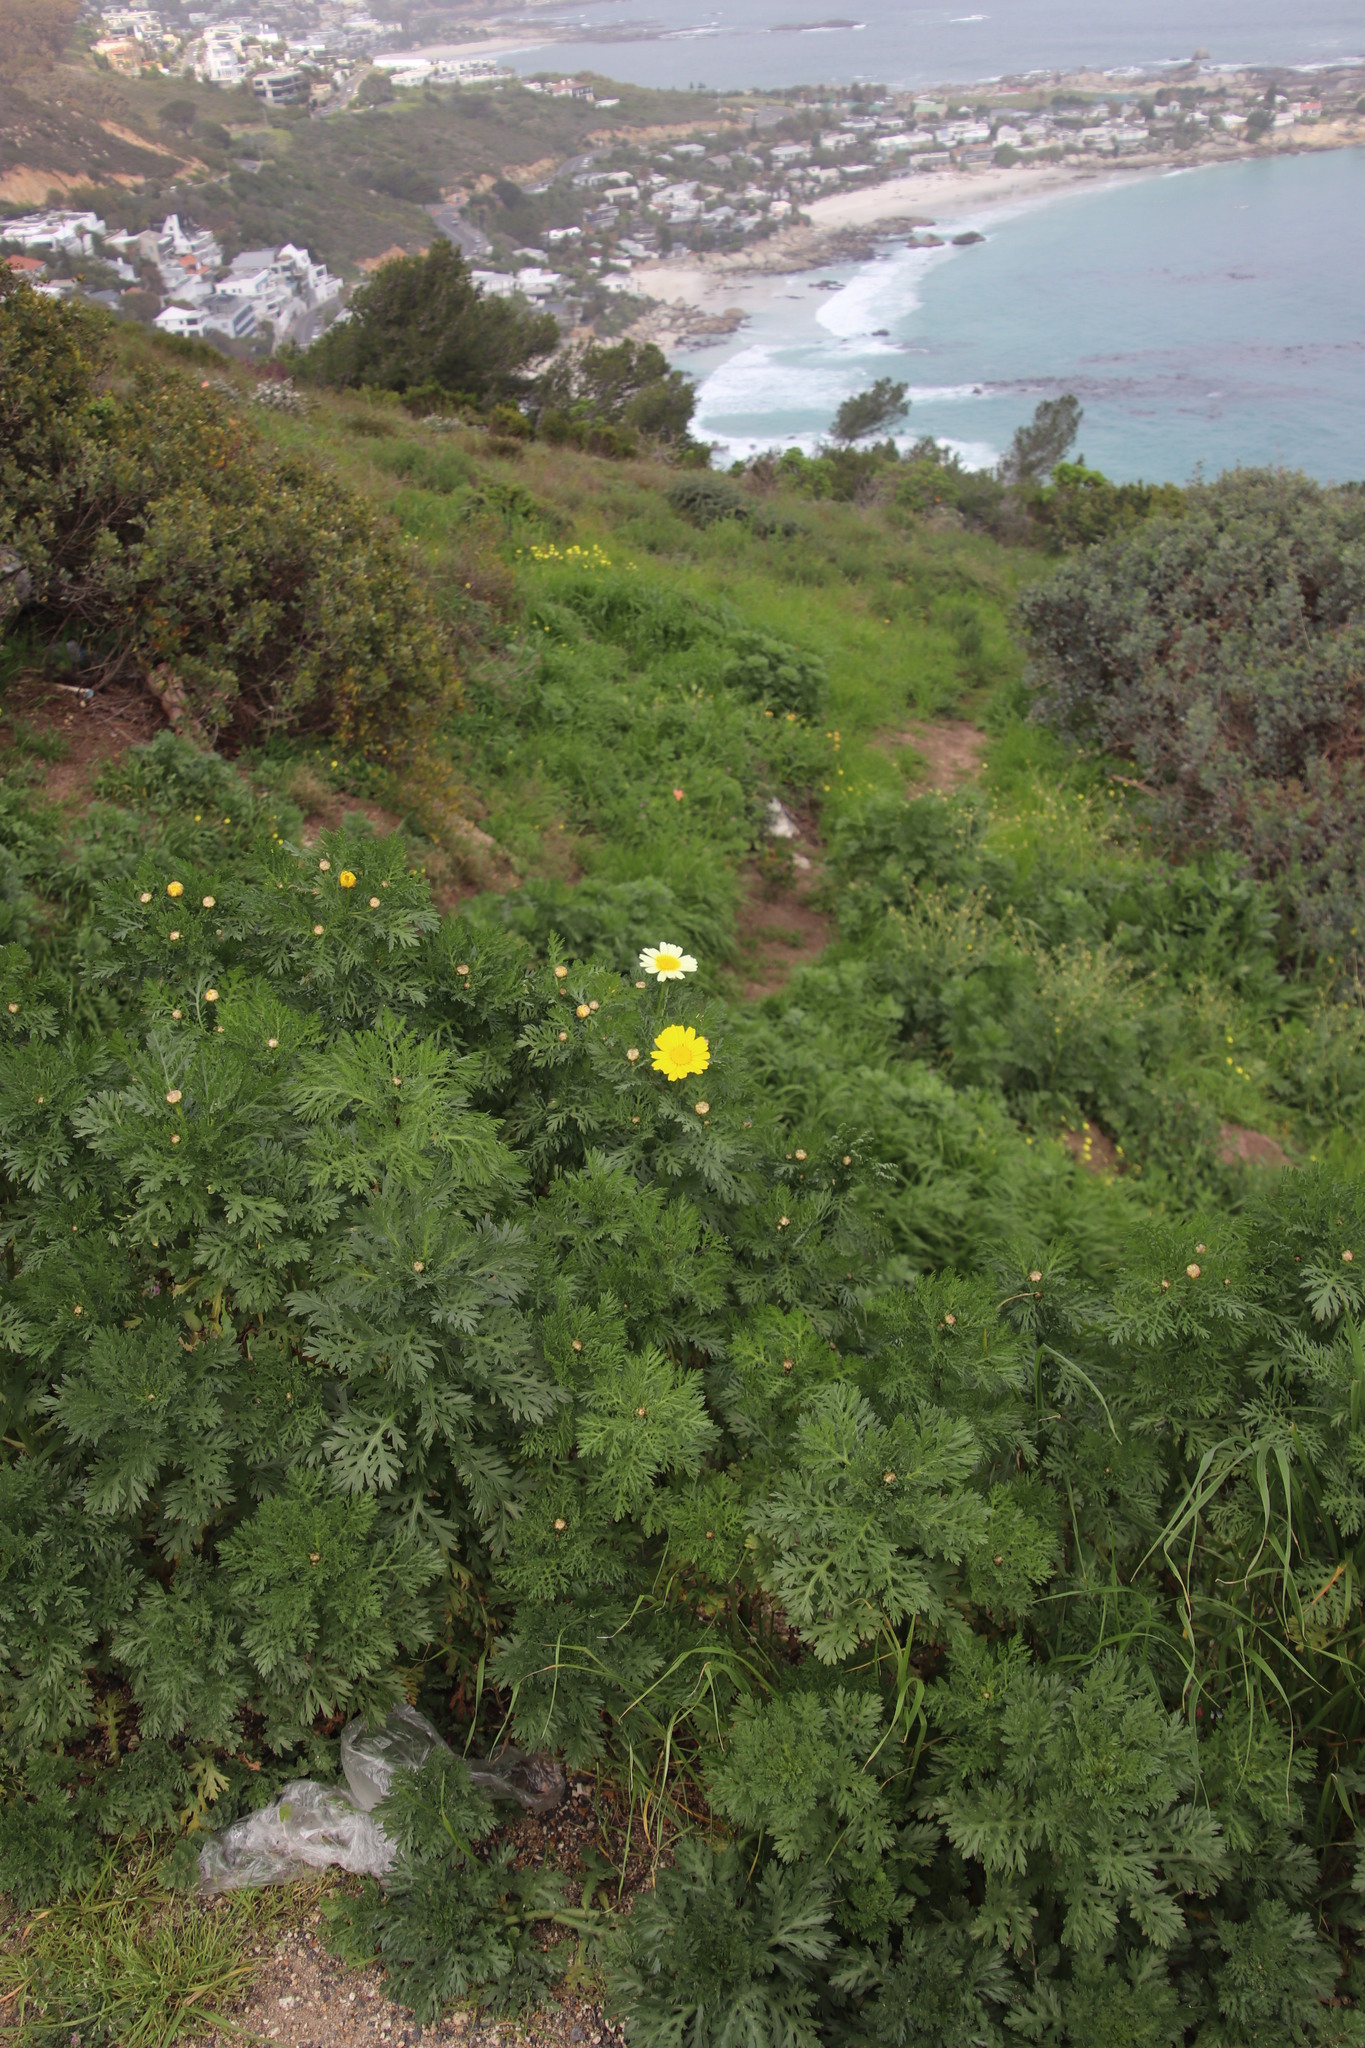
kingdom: Plantae
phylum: Tracheophyta
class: Magnoliopsida
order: Asterales
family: Asteraceae
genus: Glebionis
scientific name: Glebionis coronaria
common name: Crowndaisy
